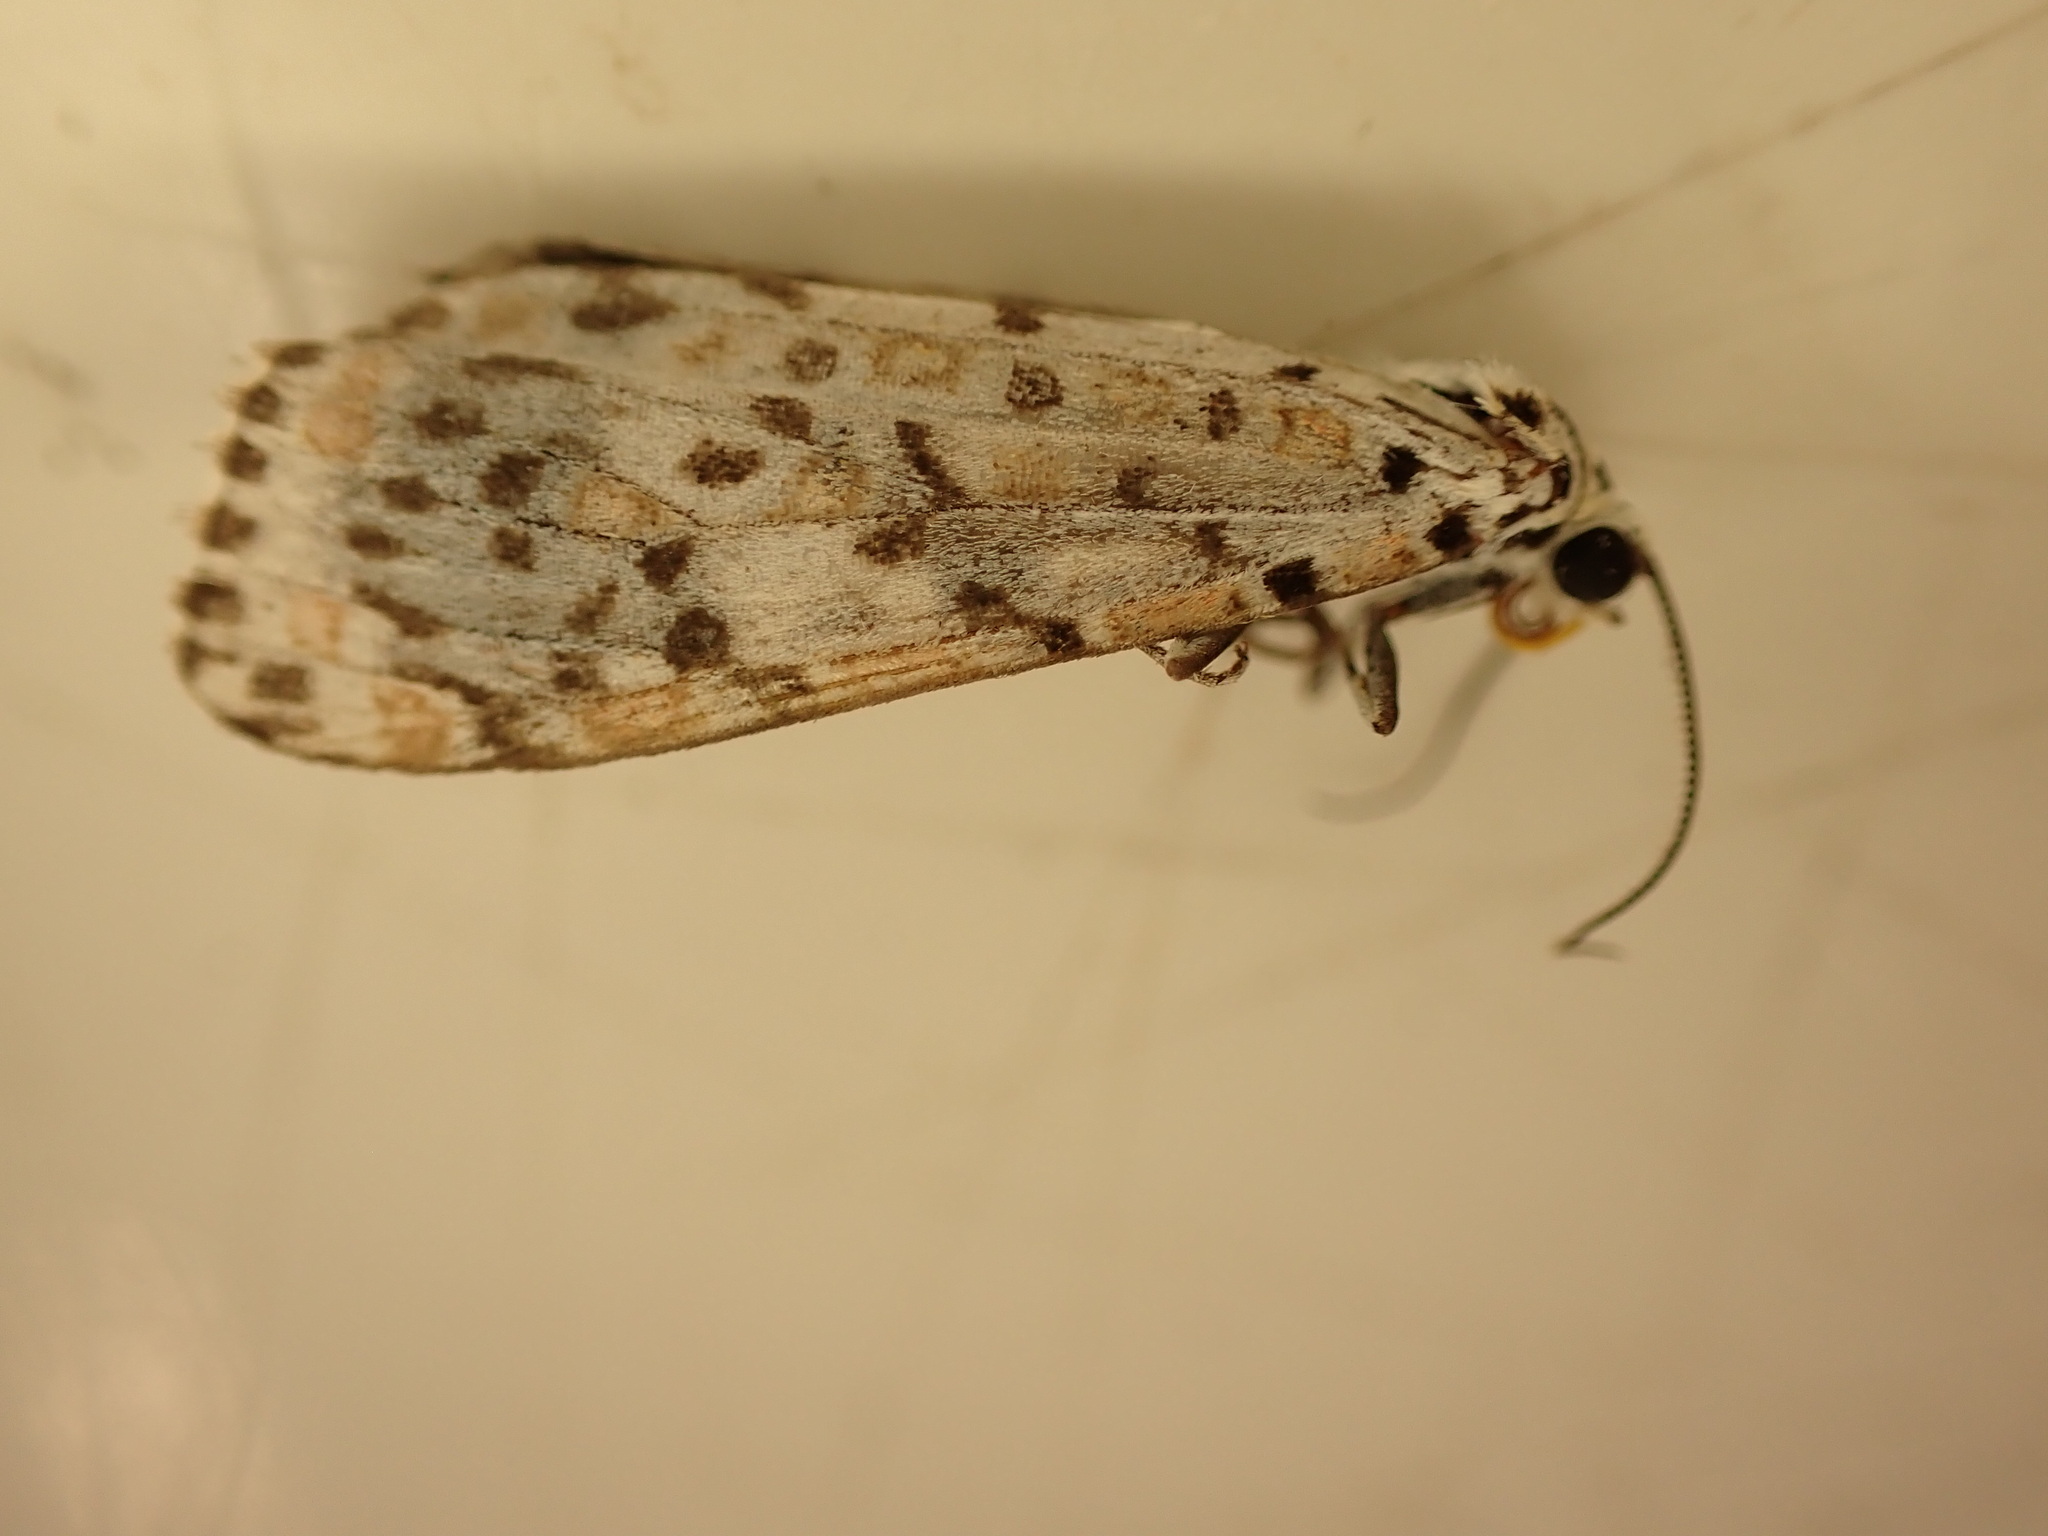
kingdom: Animalia
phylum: Arthropoda
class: Insecta
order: Lepidoptera
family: Erebidae
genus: Utetheisa
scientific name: Utetheisa pulchelloides
